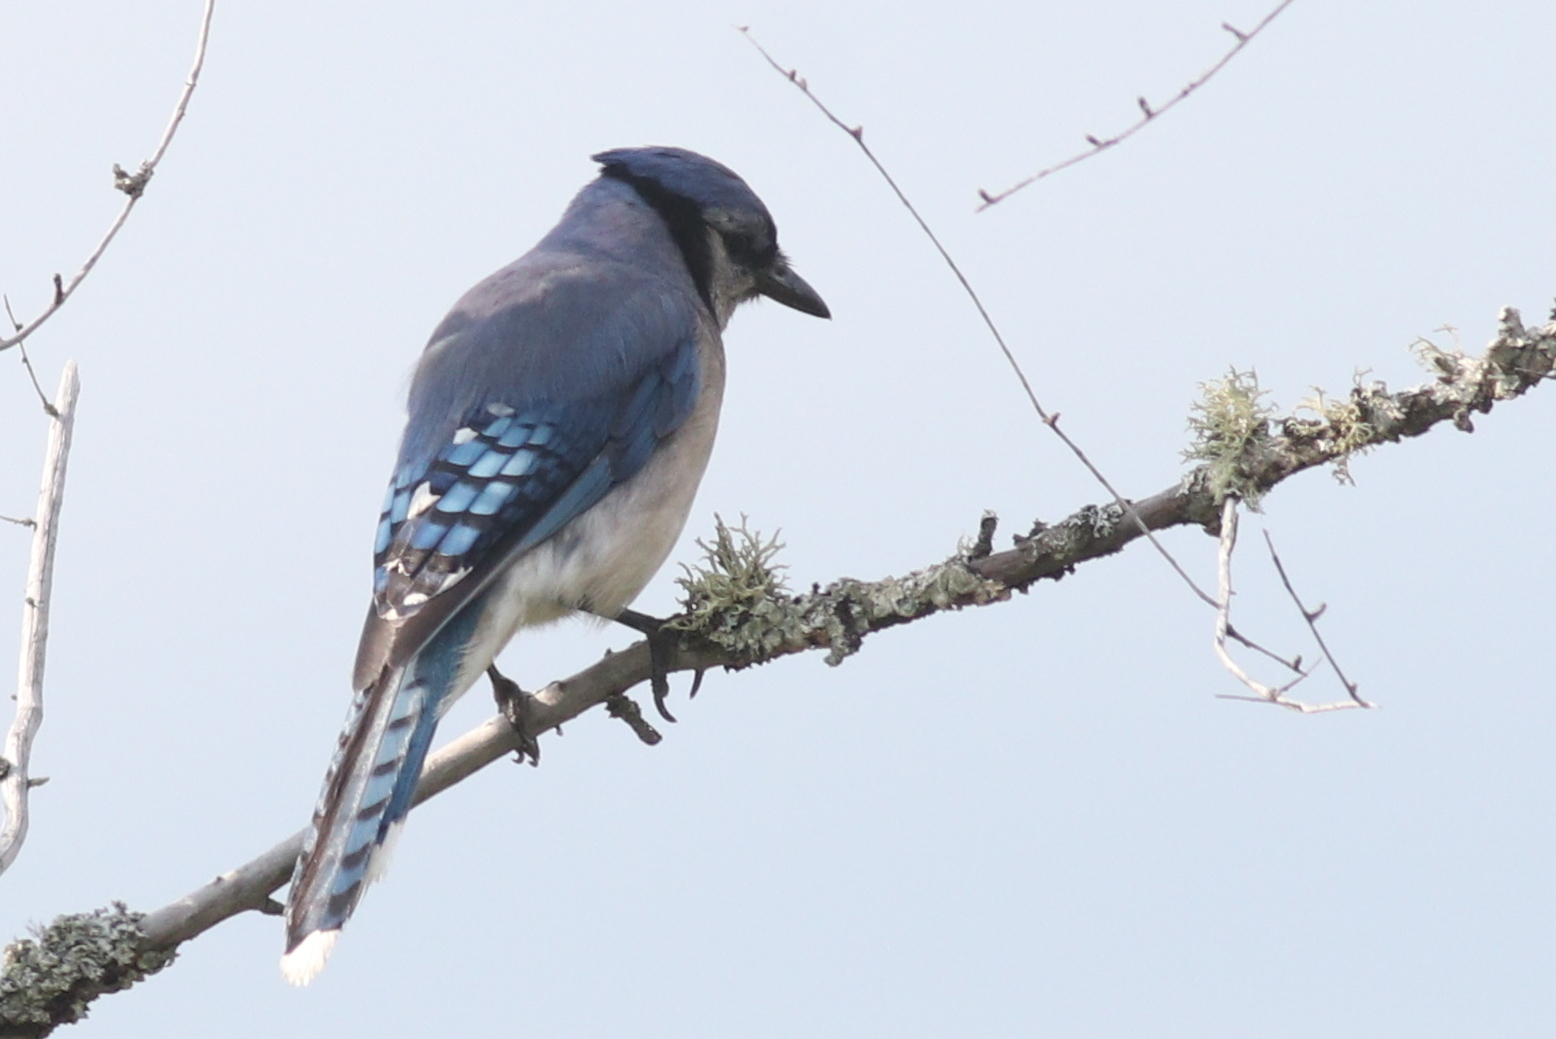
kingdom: Animalia
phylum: Chordata
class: Aves
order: Passeriformes
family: Corvidae
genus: Cyanocitta
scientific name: Cyanocitta cristata
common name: Blue jay
